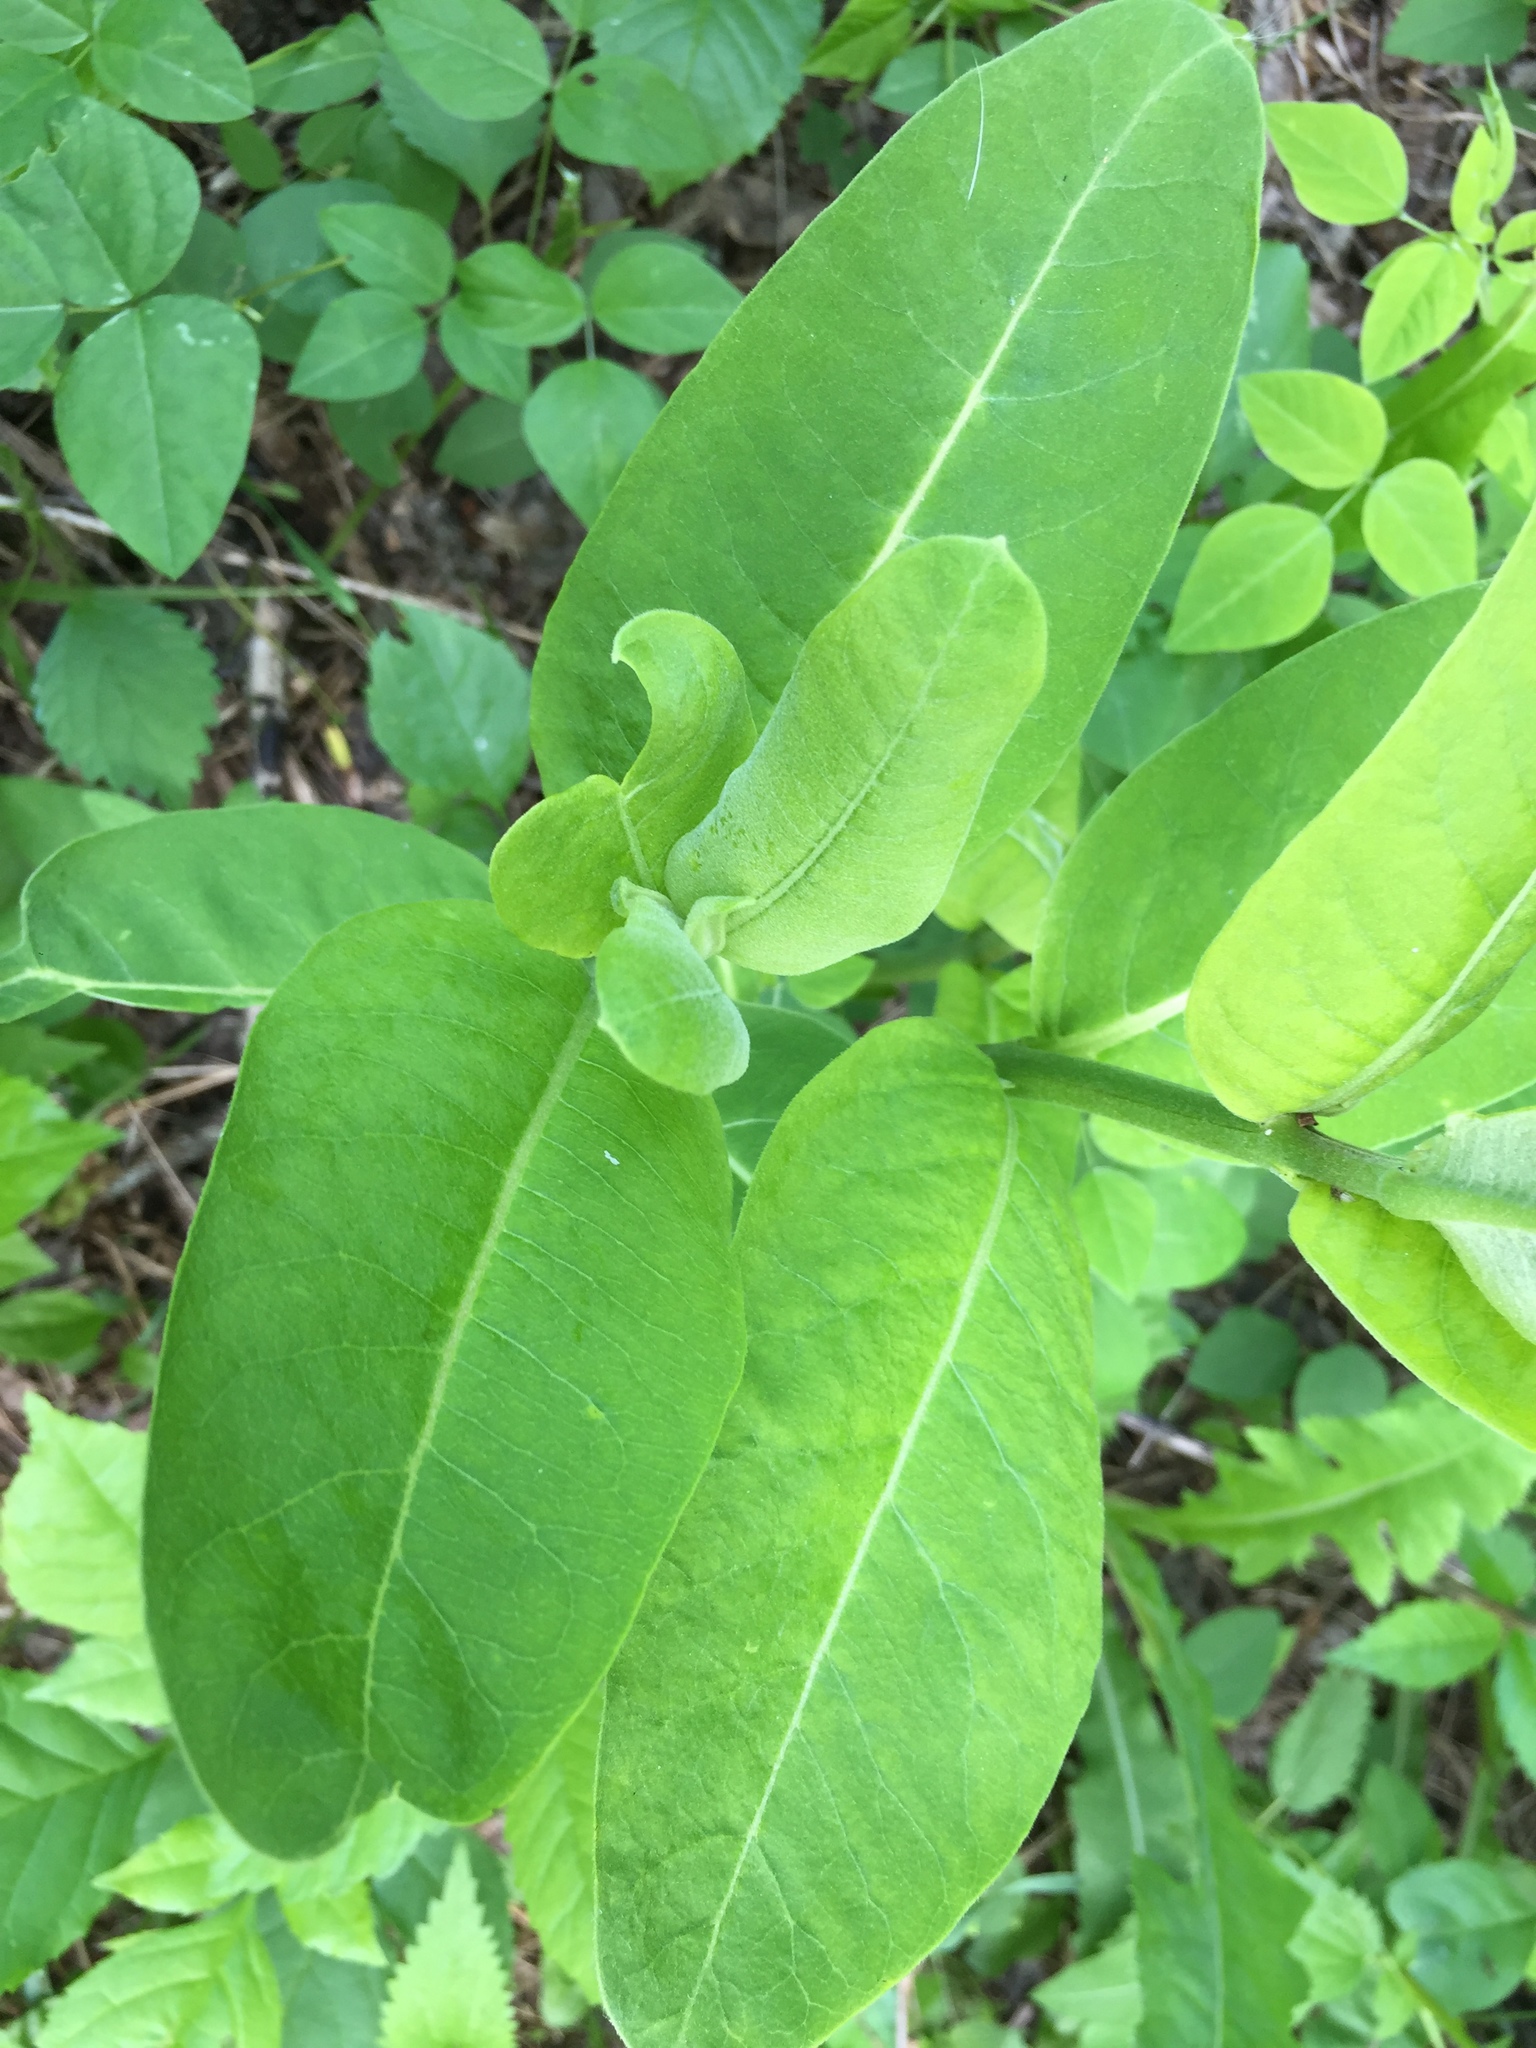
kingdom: Plantae
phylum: Tracheophyta
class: Magnoliopsida
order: Gentianales
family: Apocynaceae
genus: Asclepias
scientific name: Asclepias syriaca
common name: Common milkweed
